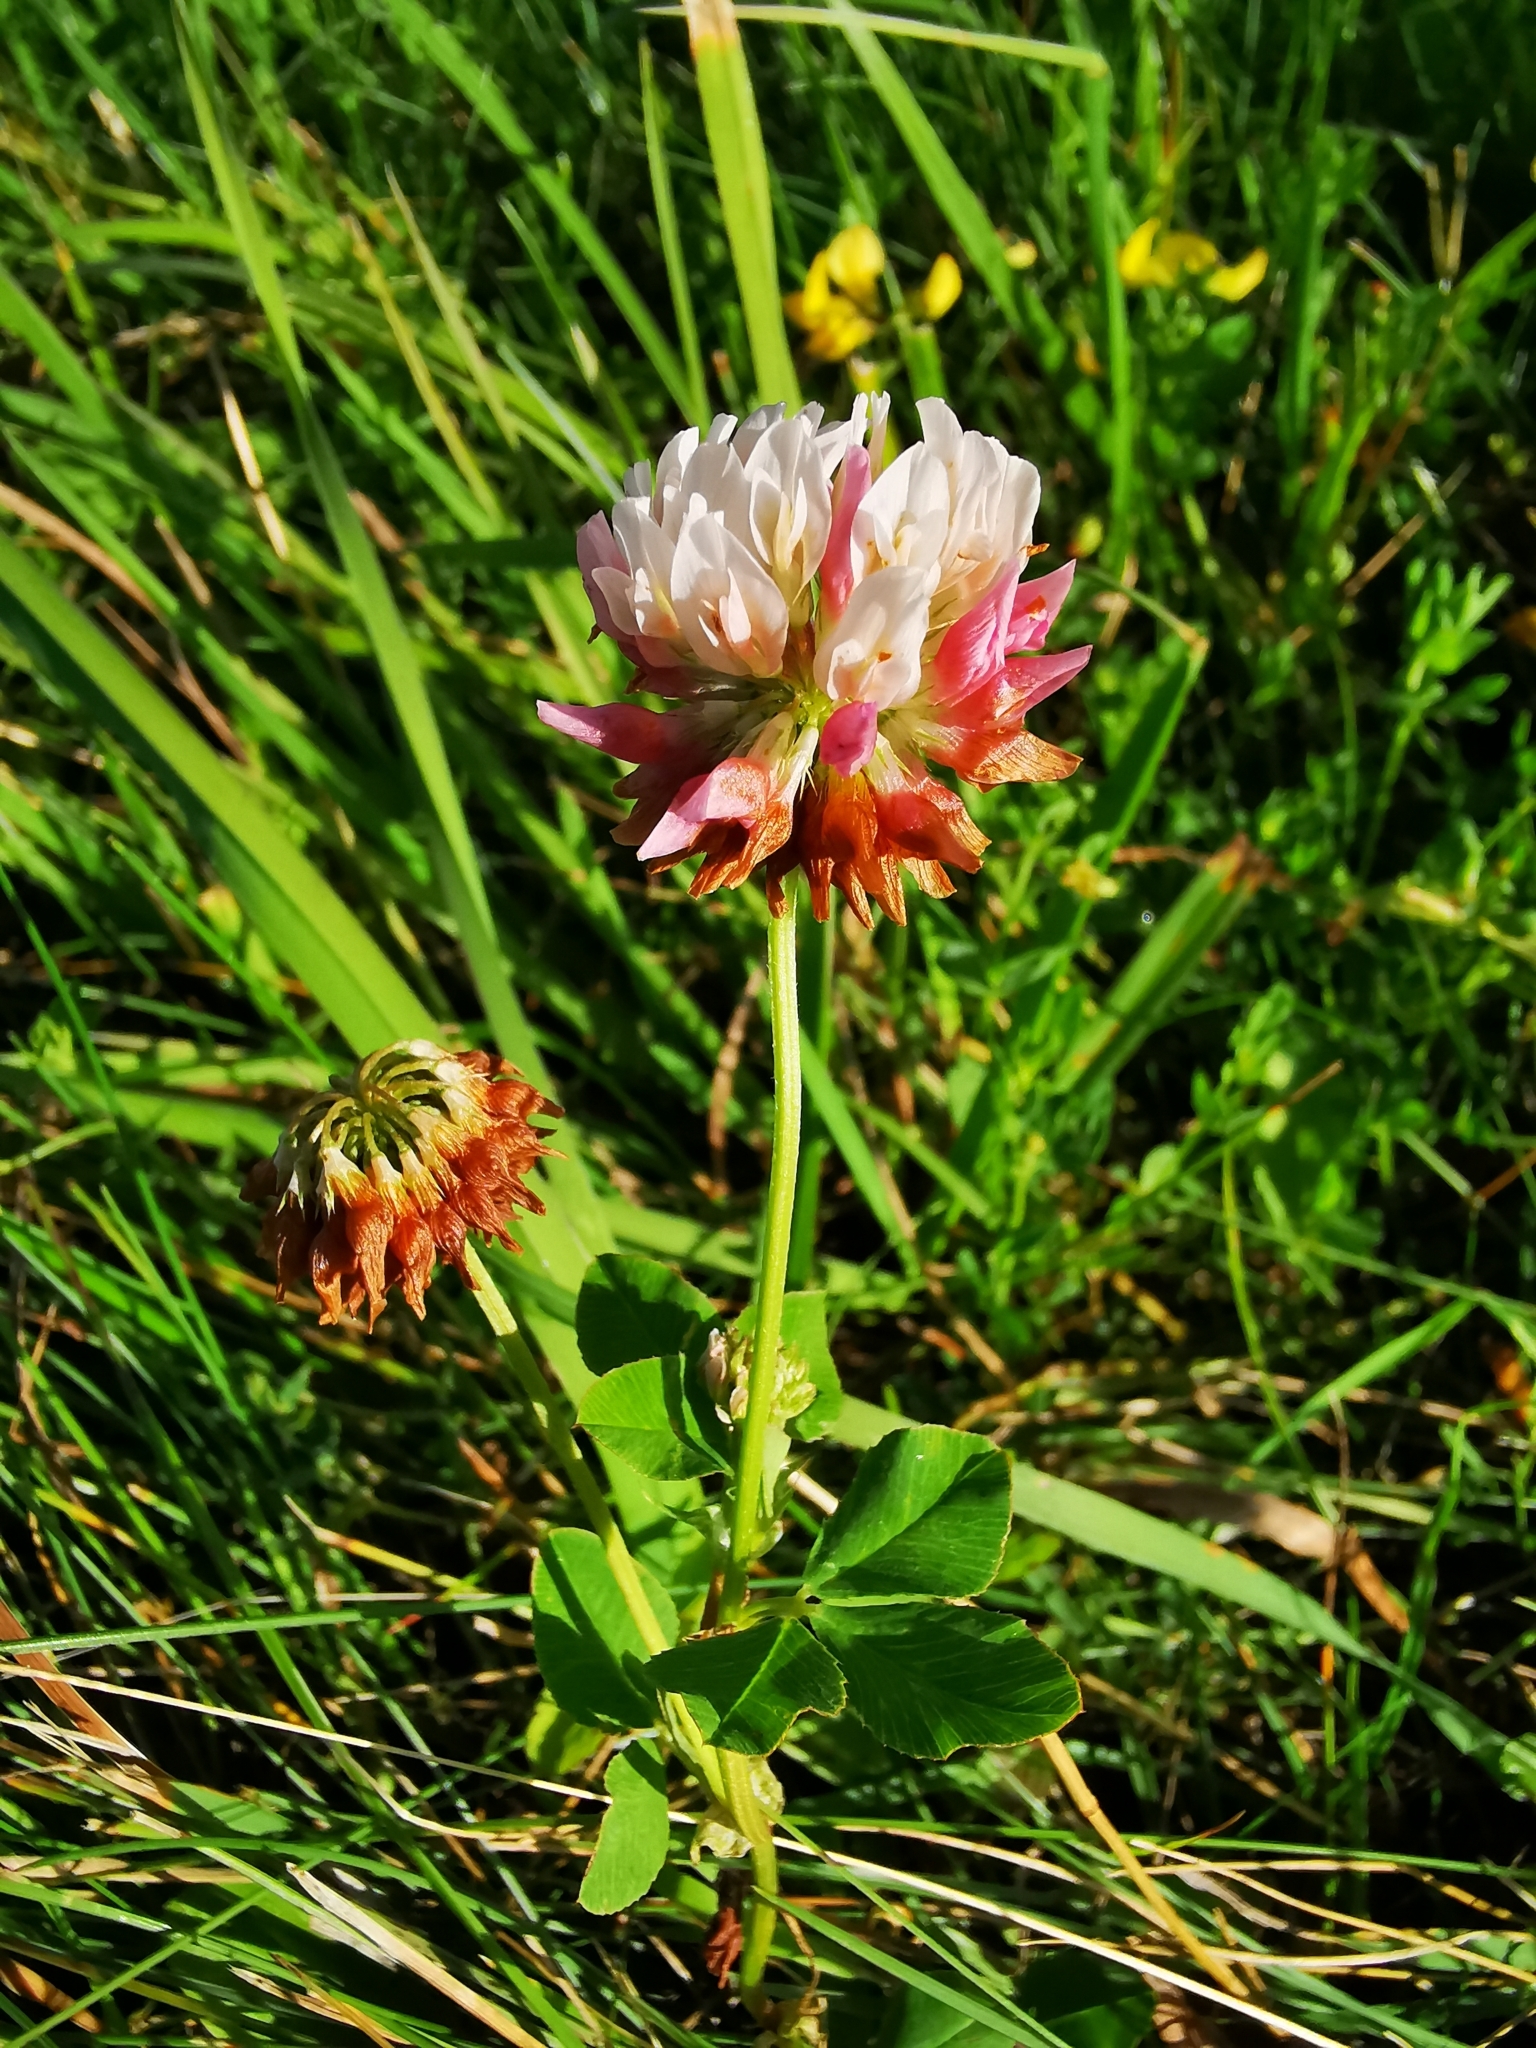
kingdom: Plantae
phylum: Tracheophyta
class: Magnoliopsida
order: Fabales
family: Fabaceae
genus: Trifolium
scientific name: Trifolium hybridum
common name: Alsike clover
